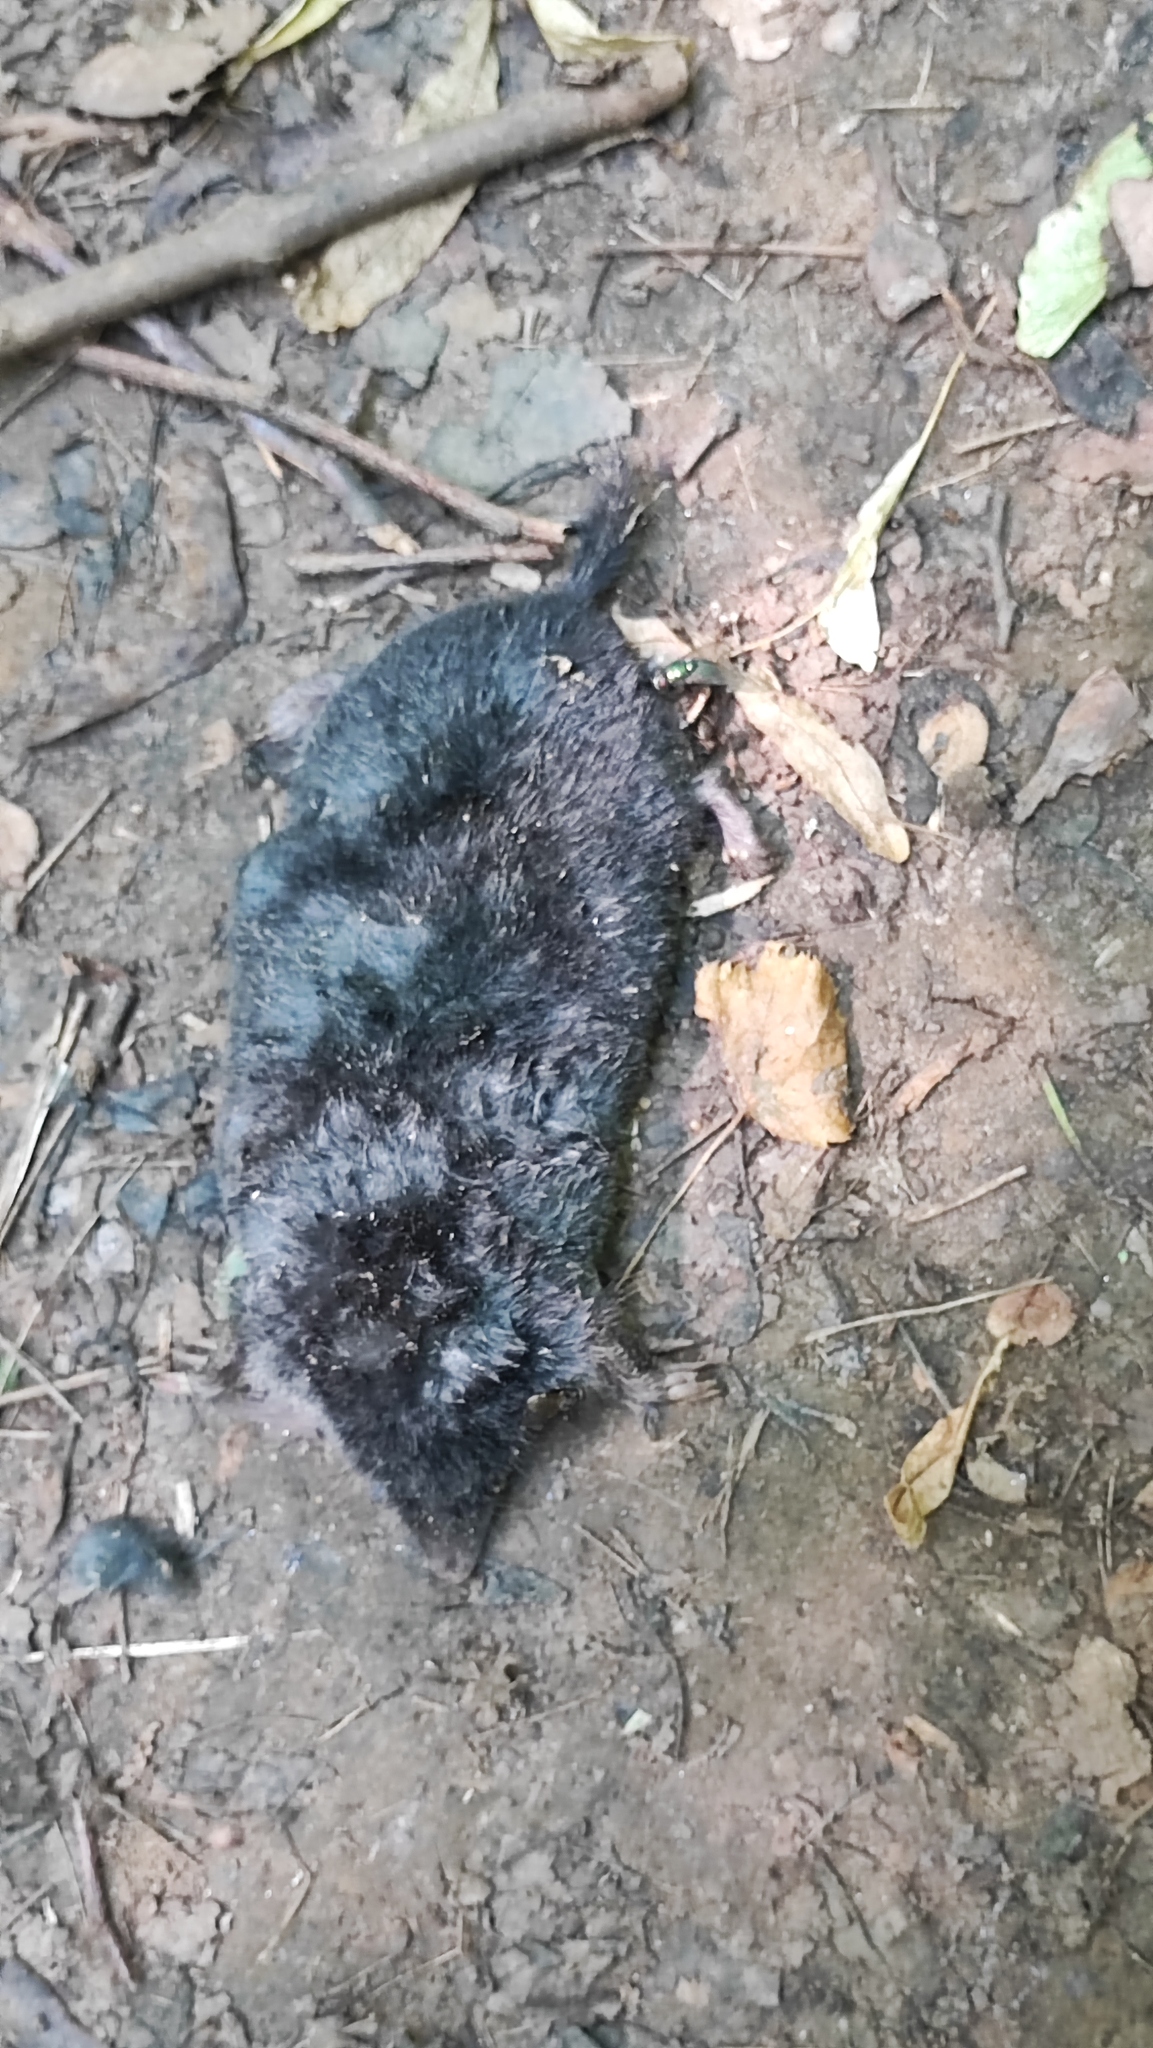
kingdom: Animalia
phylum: Chordata
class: Mammalia
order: Soricomorpha
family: Talpidae
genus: Talpa
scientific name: Talpa europaea
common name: European mole
